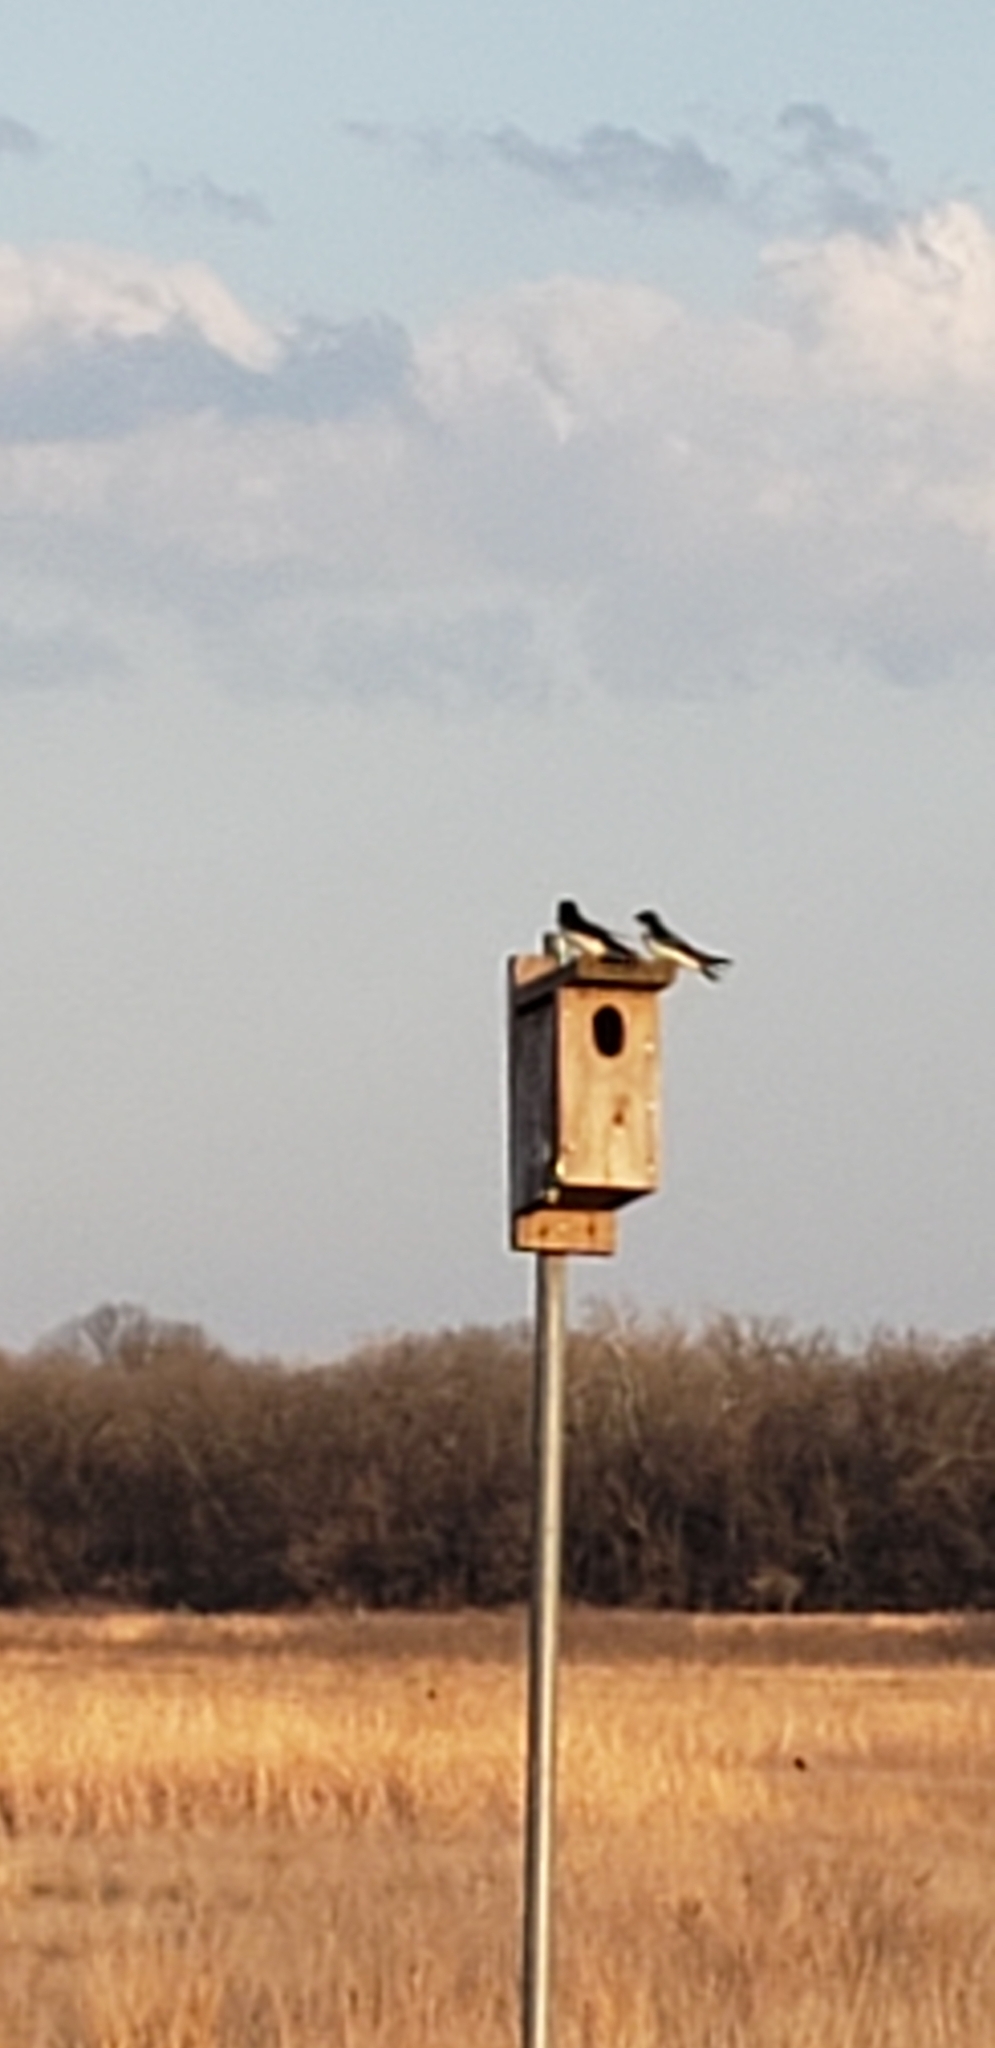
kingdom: Animalia
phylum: Chordata
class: Aves
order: Passeriformes
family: Hirundinidae
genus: Tachycineta
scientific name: Tachycineta bicolor
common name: Tree swallow
